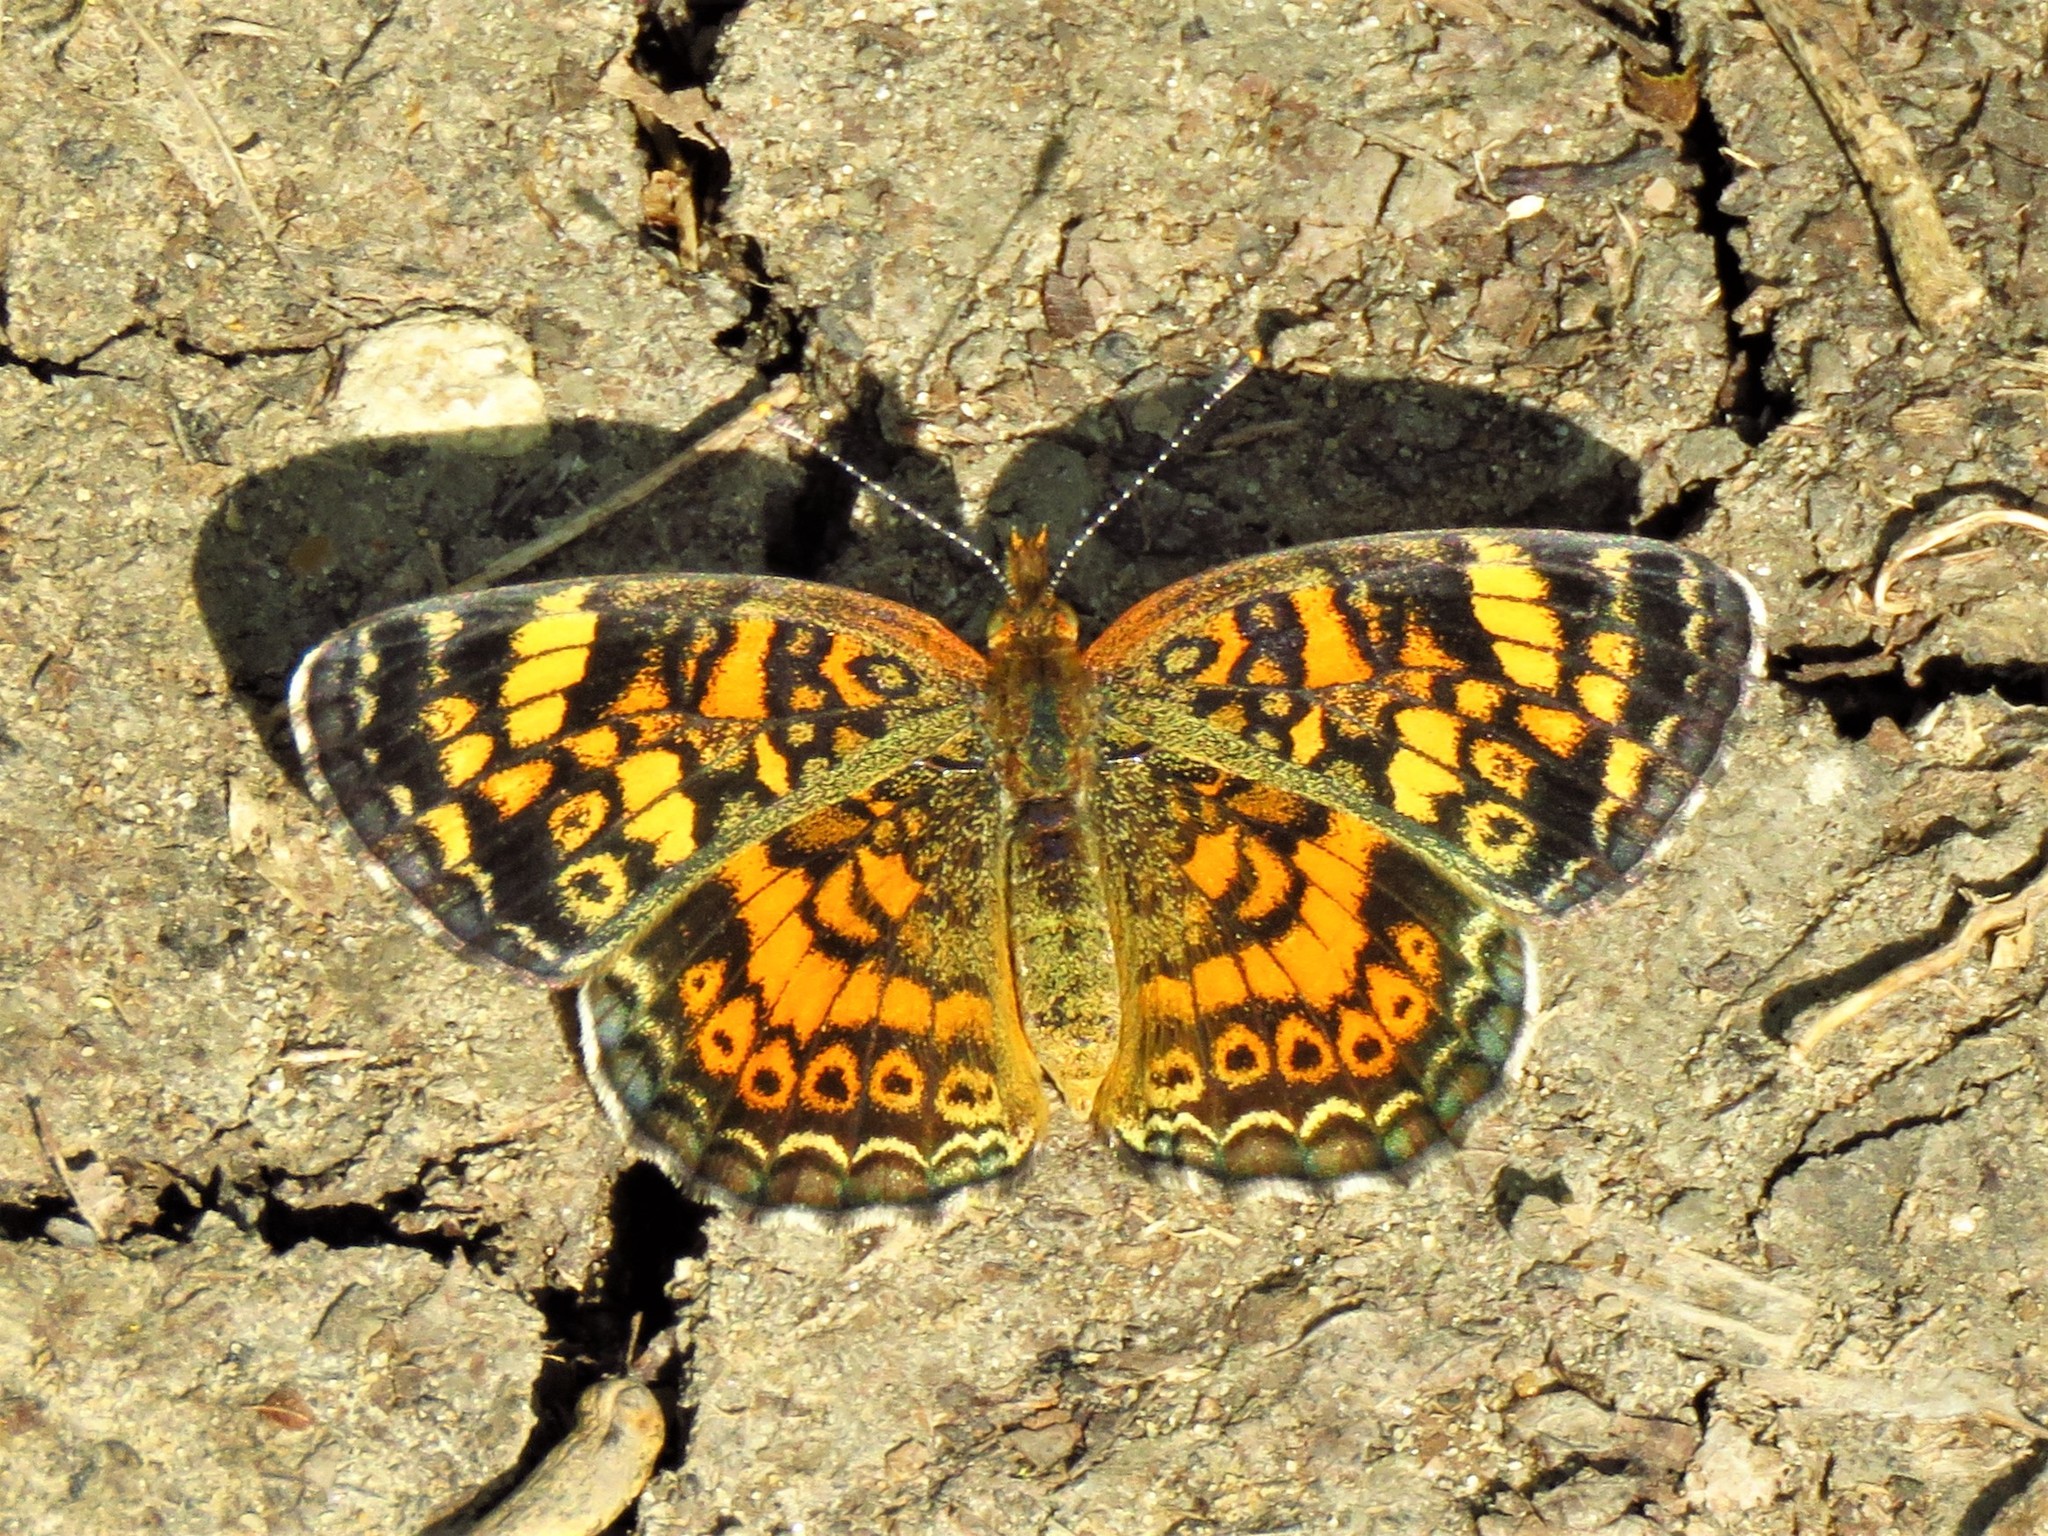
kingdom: Animalia
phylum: Arthropoda
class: Insecta
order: Lepidoptera
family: Nymphalidae
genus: Phyciodes
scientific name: Phyciodes tharos
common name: Pearl crescent
